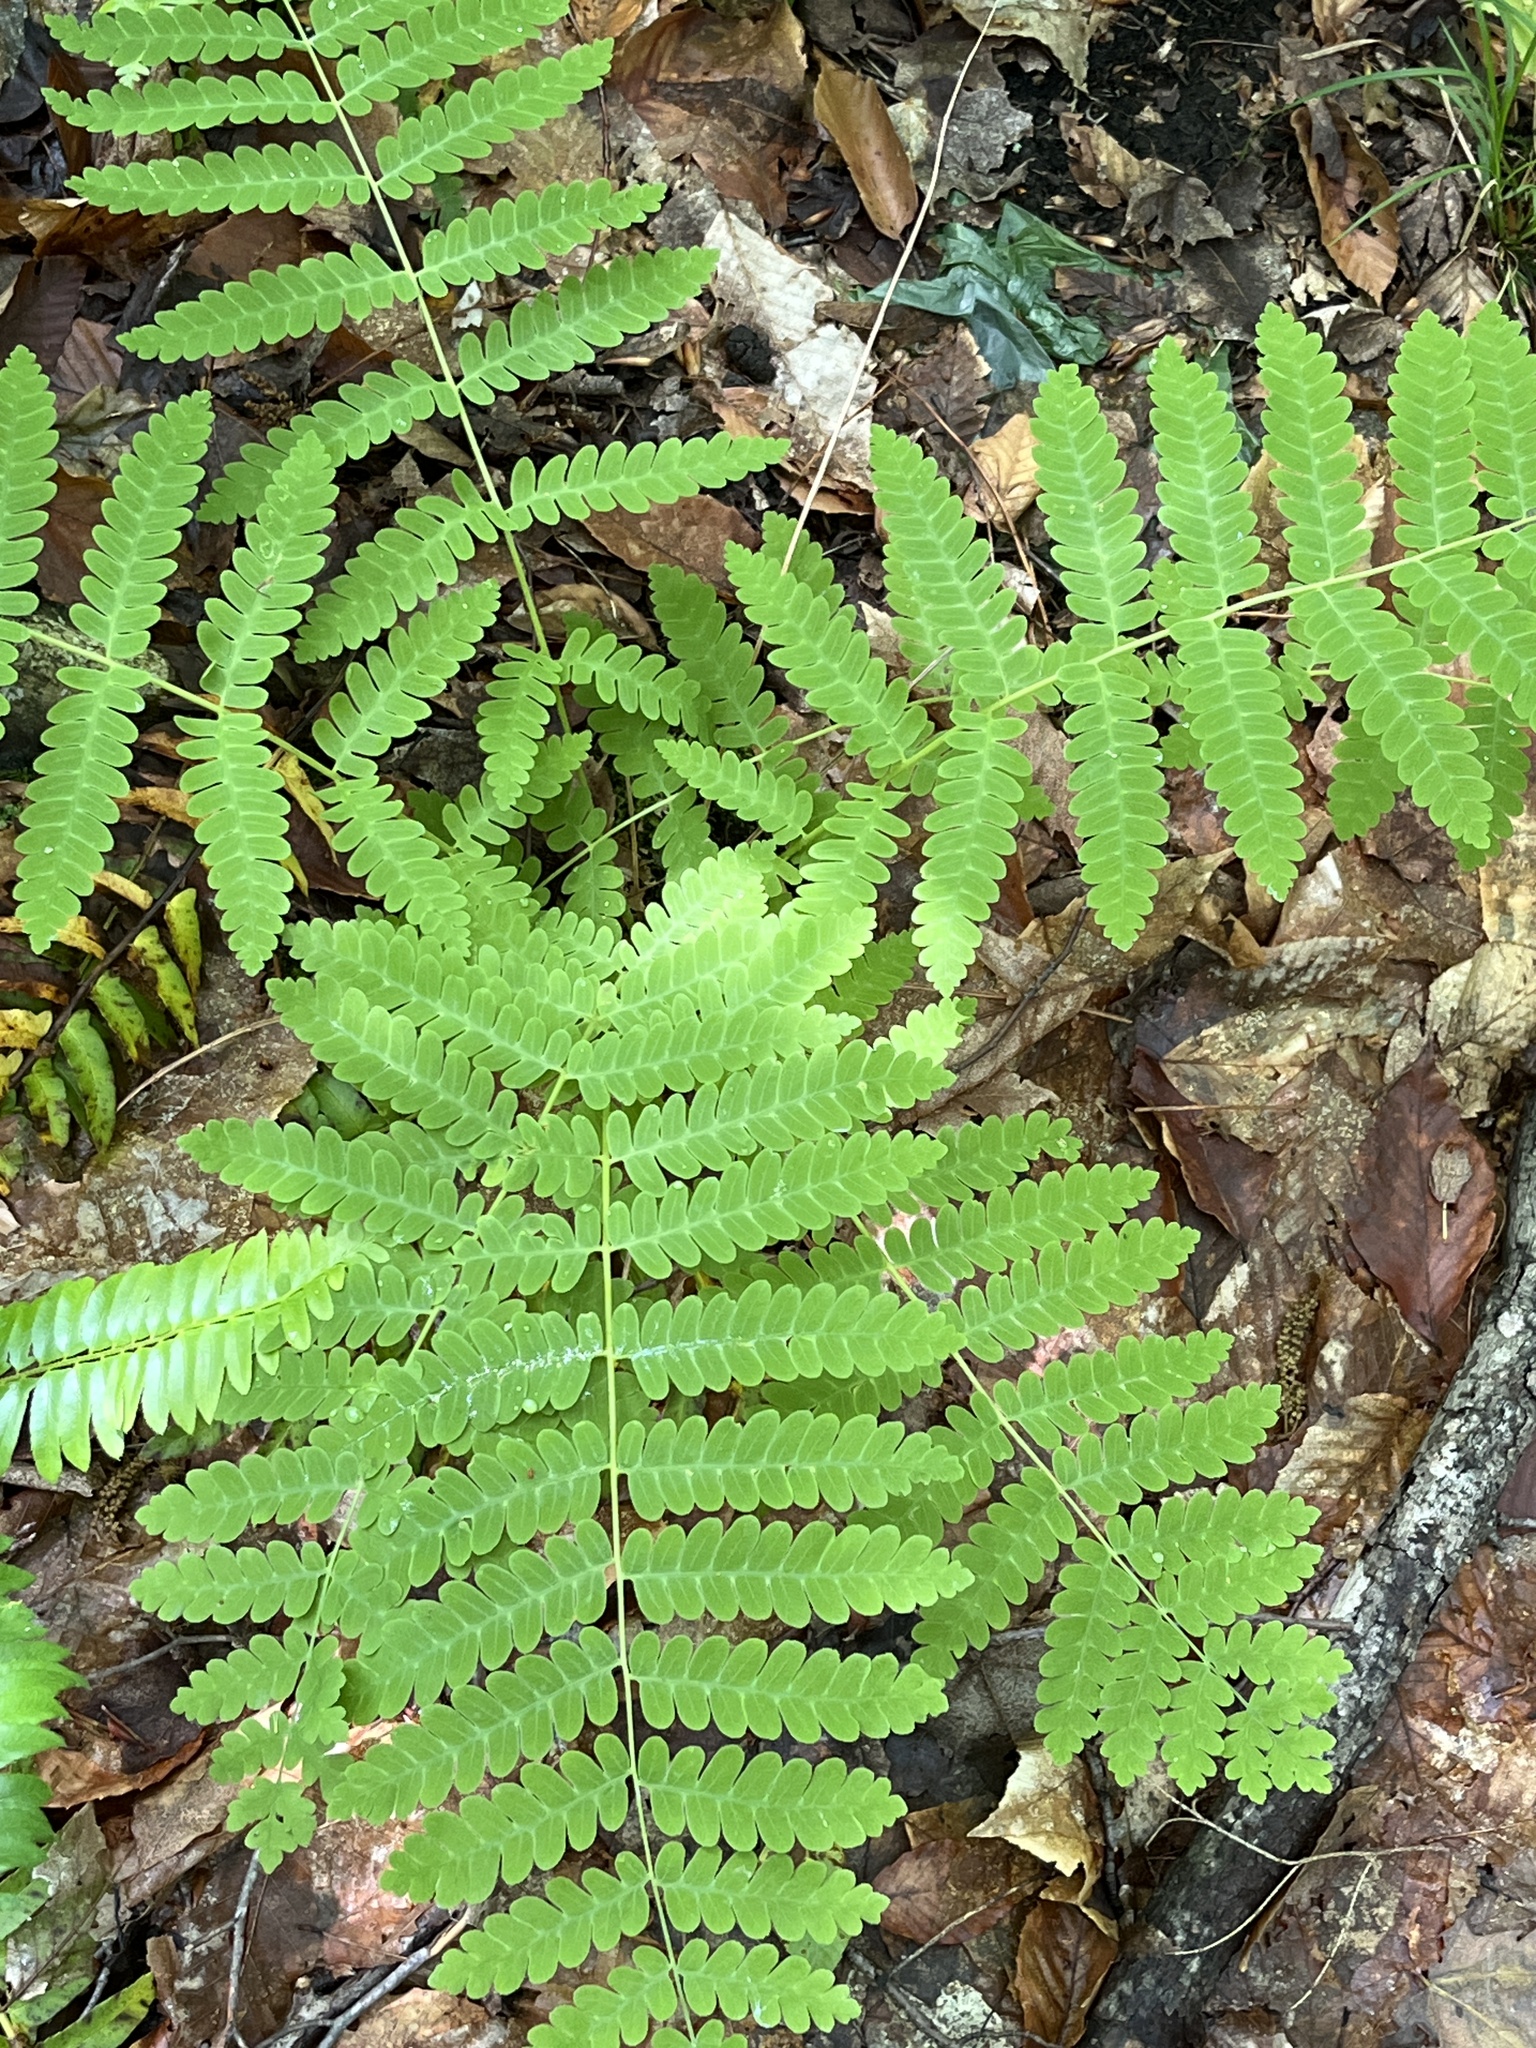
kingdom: Plantae
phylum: Tracheophyta
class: Polypodiopsida
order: Osmundales
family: Osmundaceae
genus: Claytosmunda
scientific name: Claytosmunda claytoniana
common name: Clayton's fern
